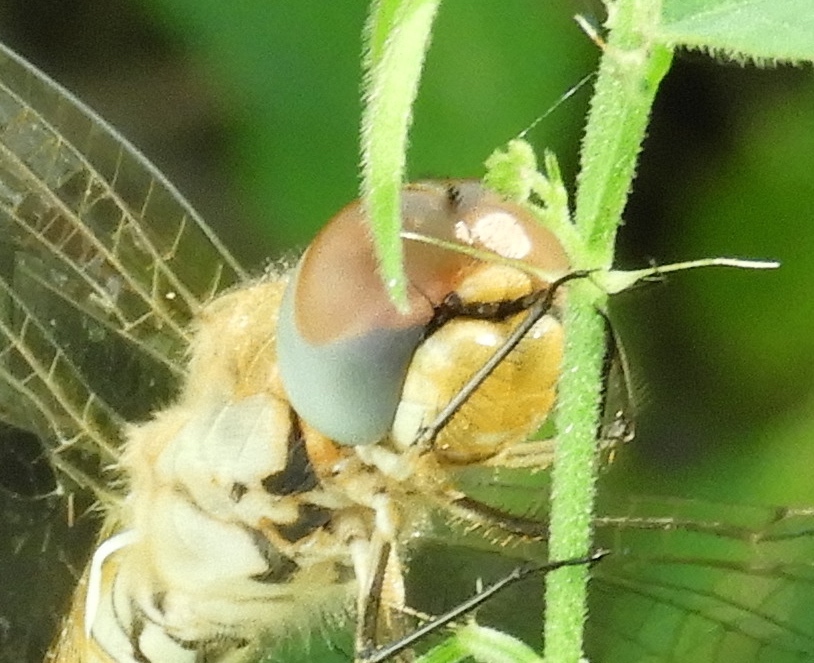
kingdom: Animalia
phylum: Arthropoda
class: Insecta
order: Odonata
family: Libellulidae
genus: Pantala
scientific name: Pantala flavescens
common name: Wandering glider
